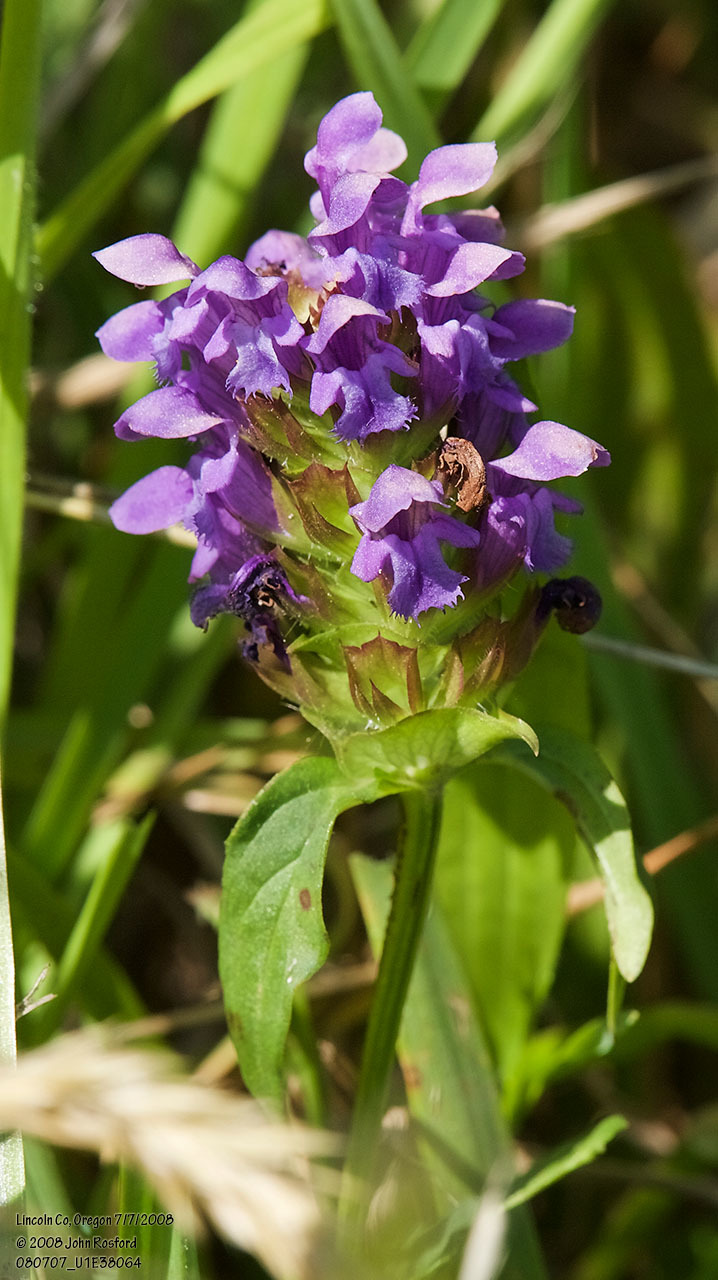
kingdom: Plantae
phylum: Tracheophyta
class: Magnoliopsida
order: Lamiales
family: Lamiaceae
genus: Prunella
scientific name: Prunella vulgaris
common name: Heal-all
